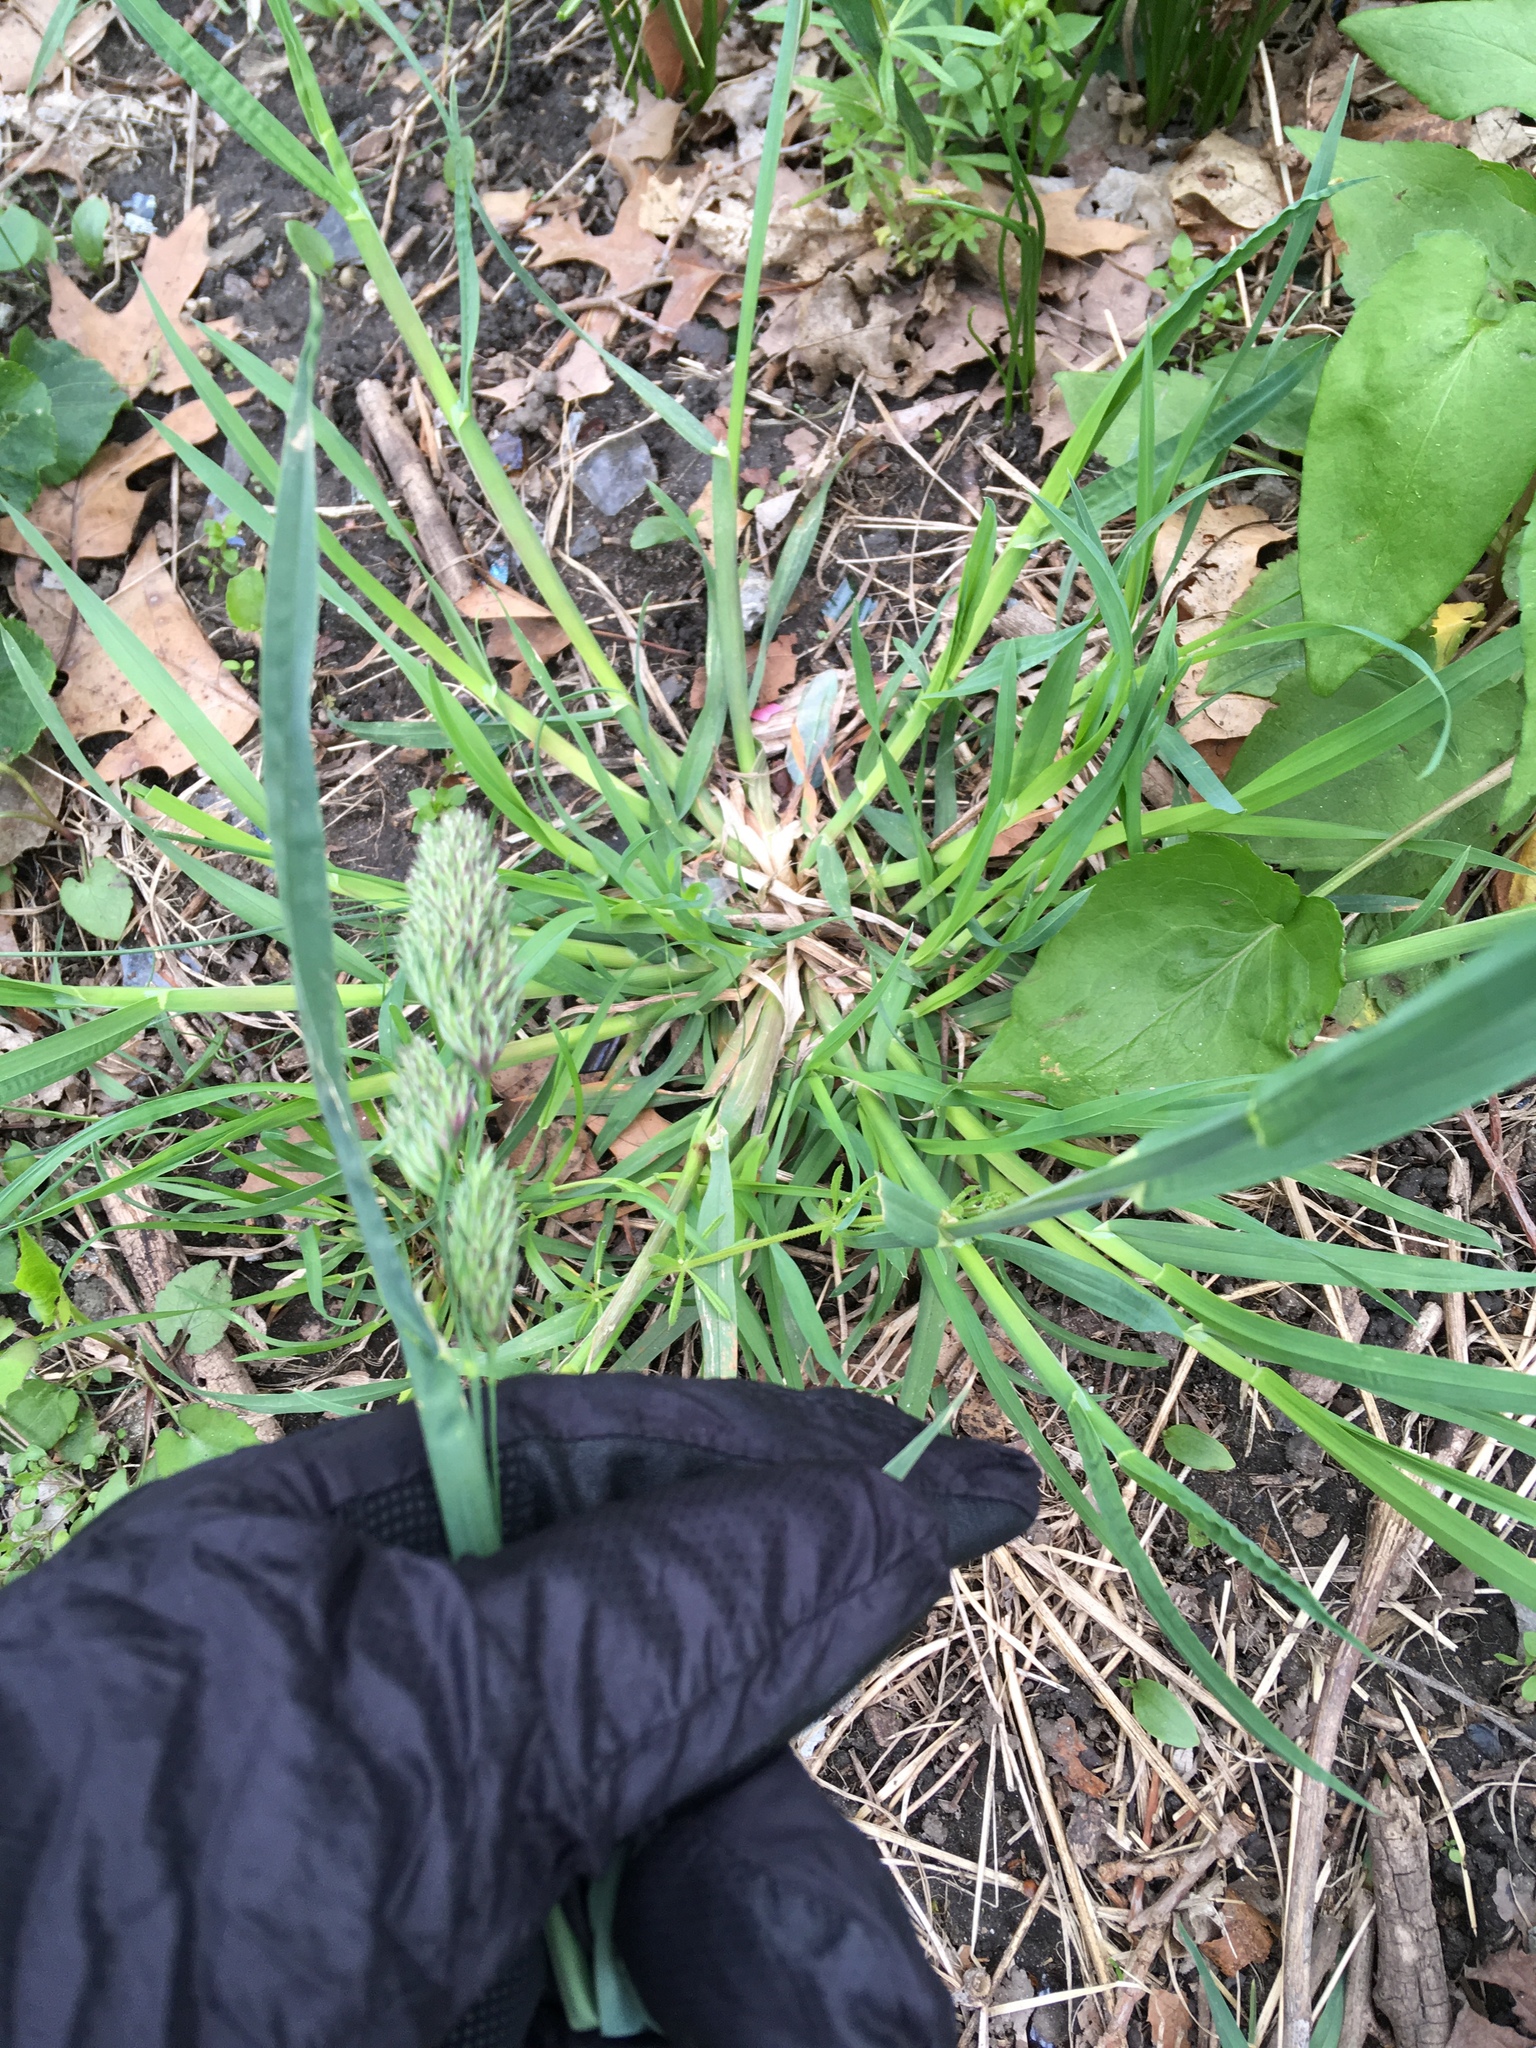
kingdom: Plantae
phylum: Tracheophyta
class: Liliopsida
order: Poales
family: Poaceae
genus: Dactylis
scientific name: Dactylis glomerata
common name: Orchardgrass
